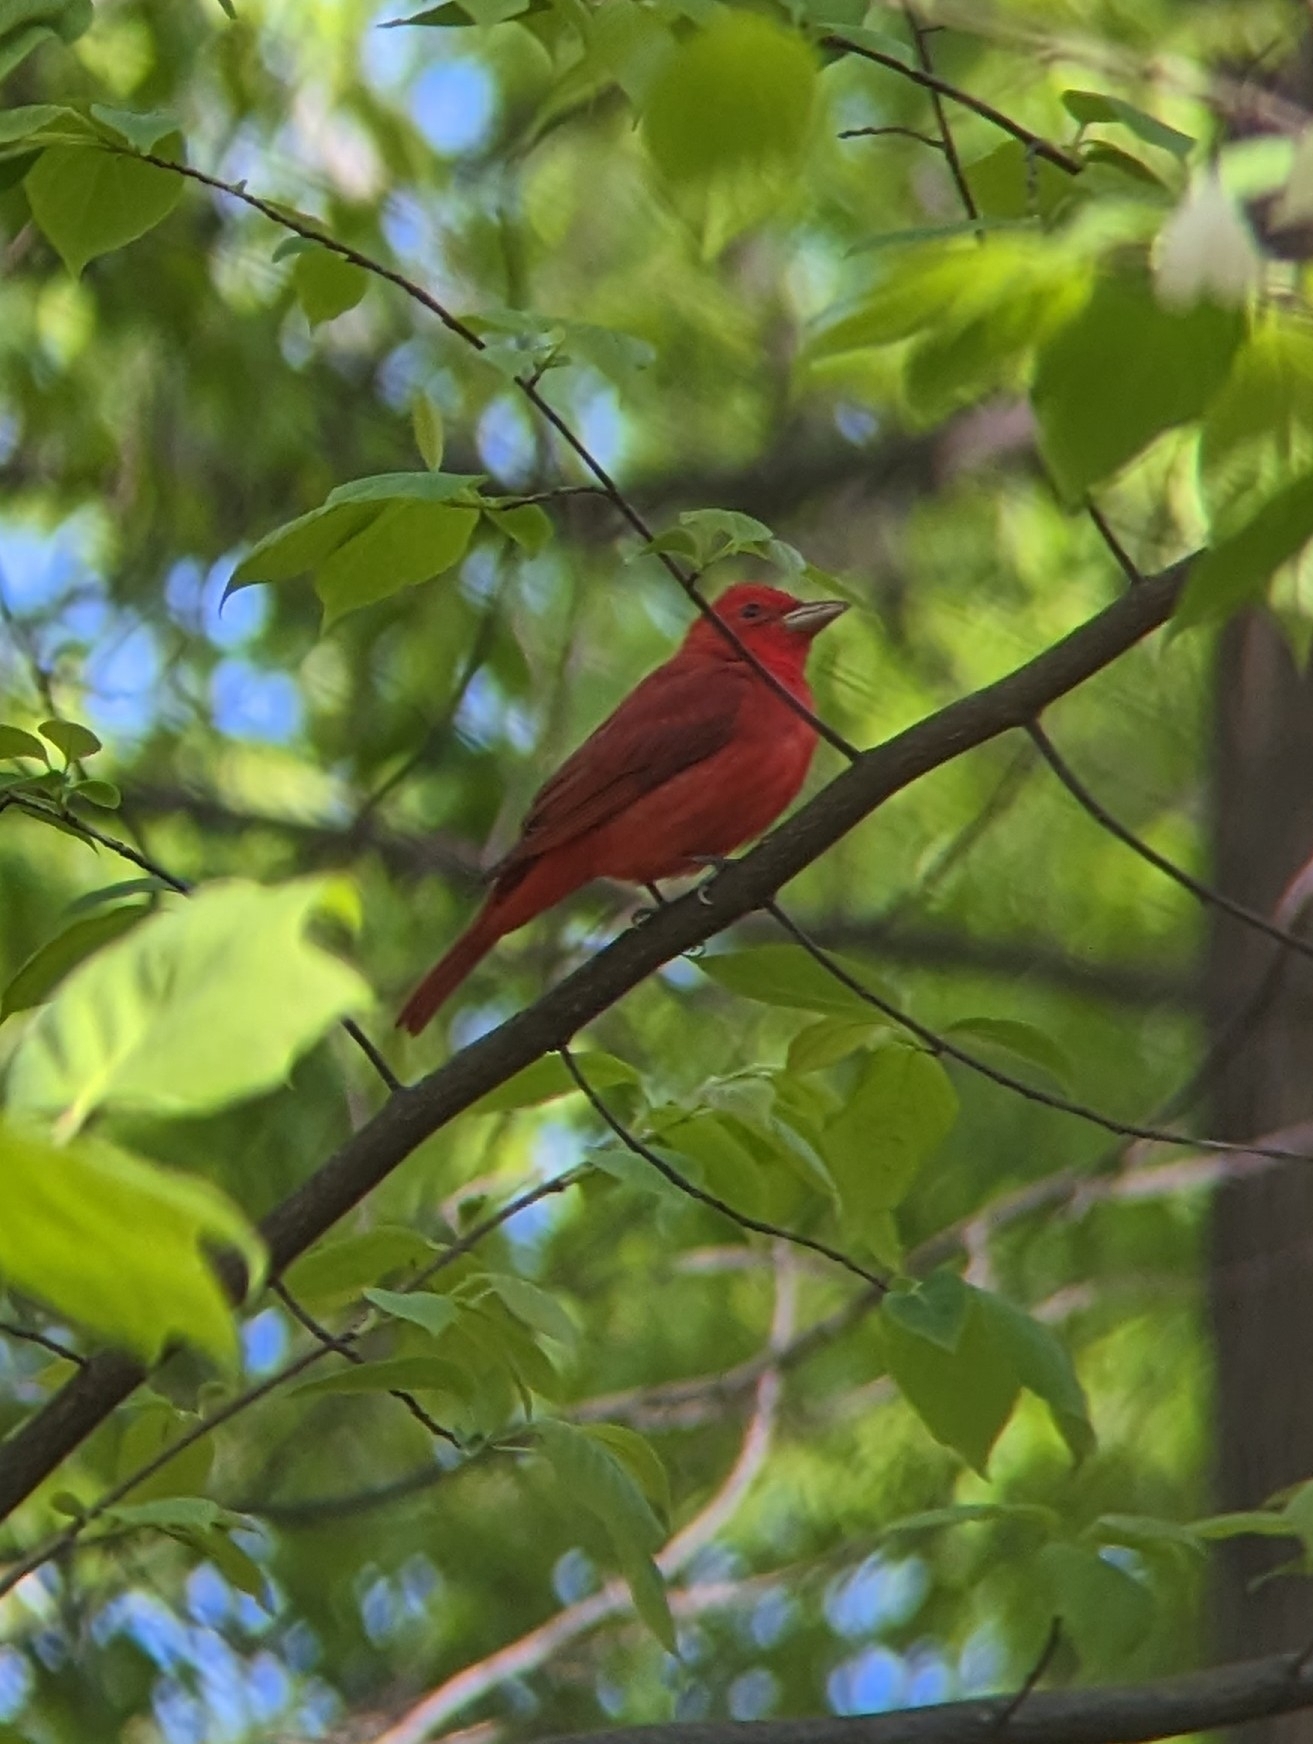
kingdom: Animalia
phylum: Chordata
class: Aves
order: Passeriformes
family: Cardinalidae
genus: Piranga
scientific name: Piranga rubra
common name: Summer tanager
